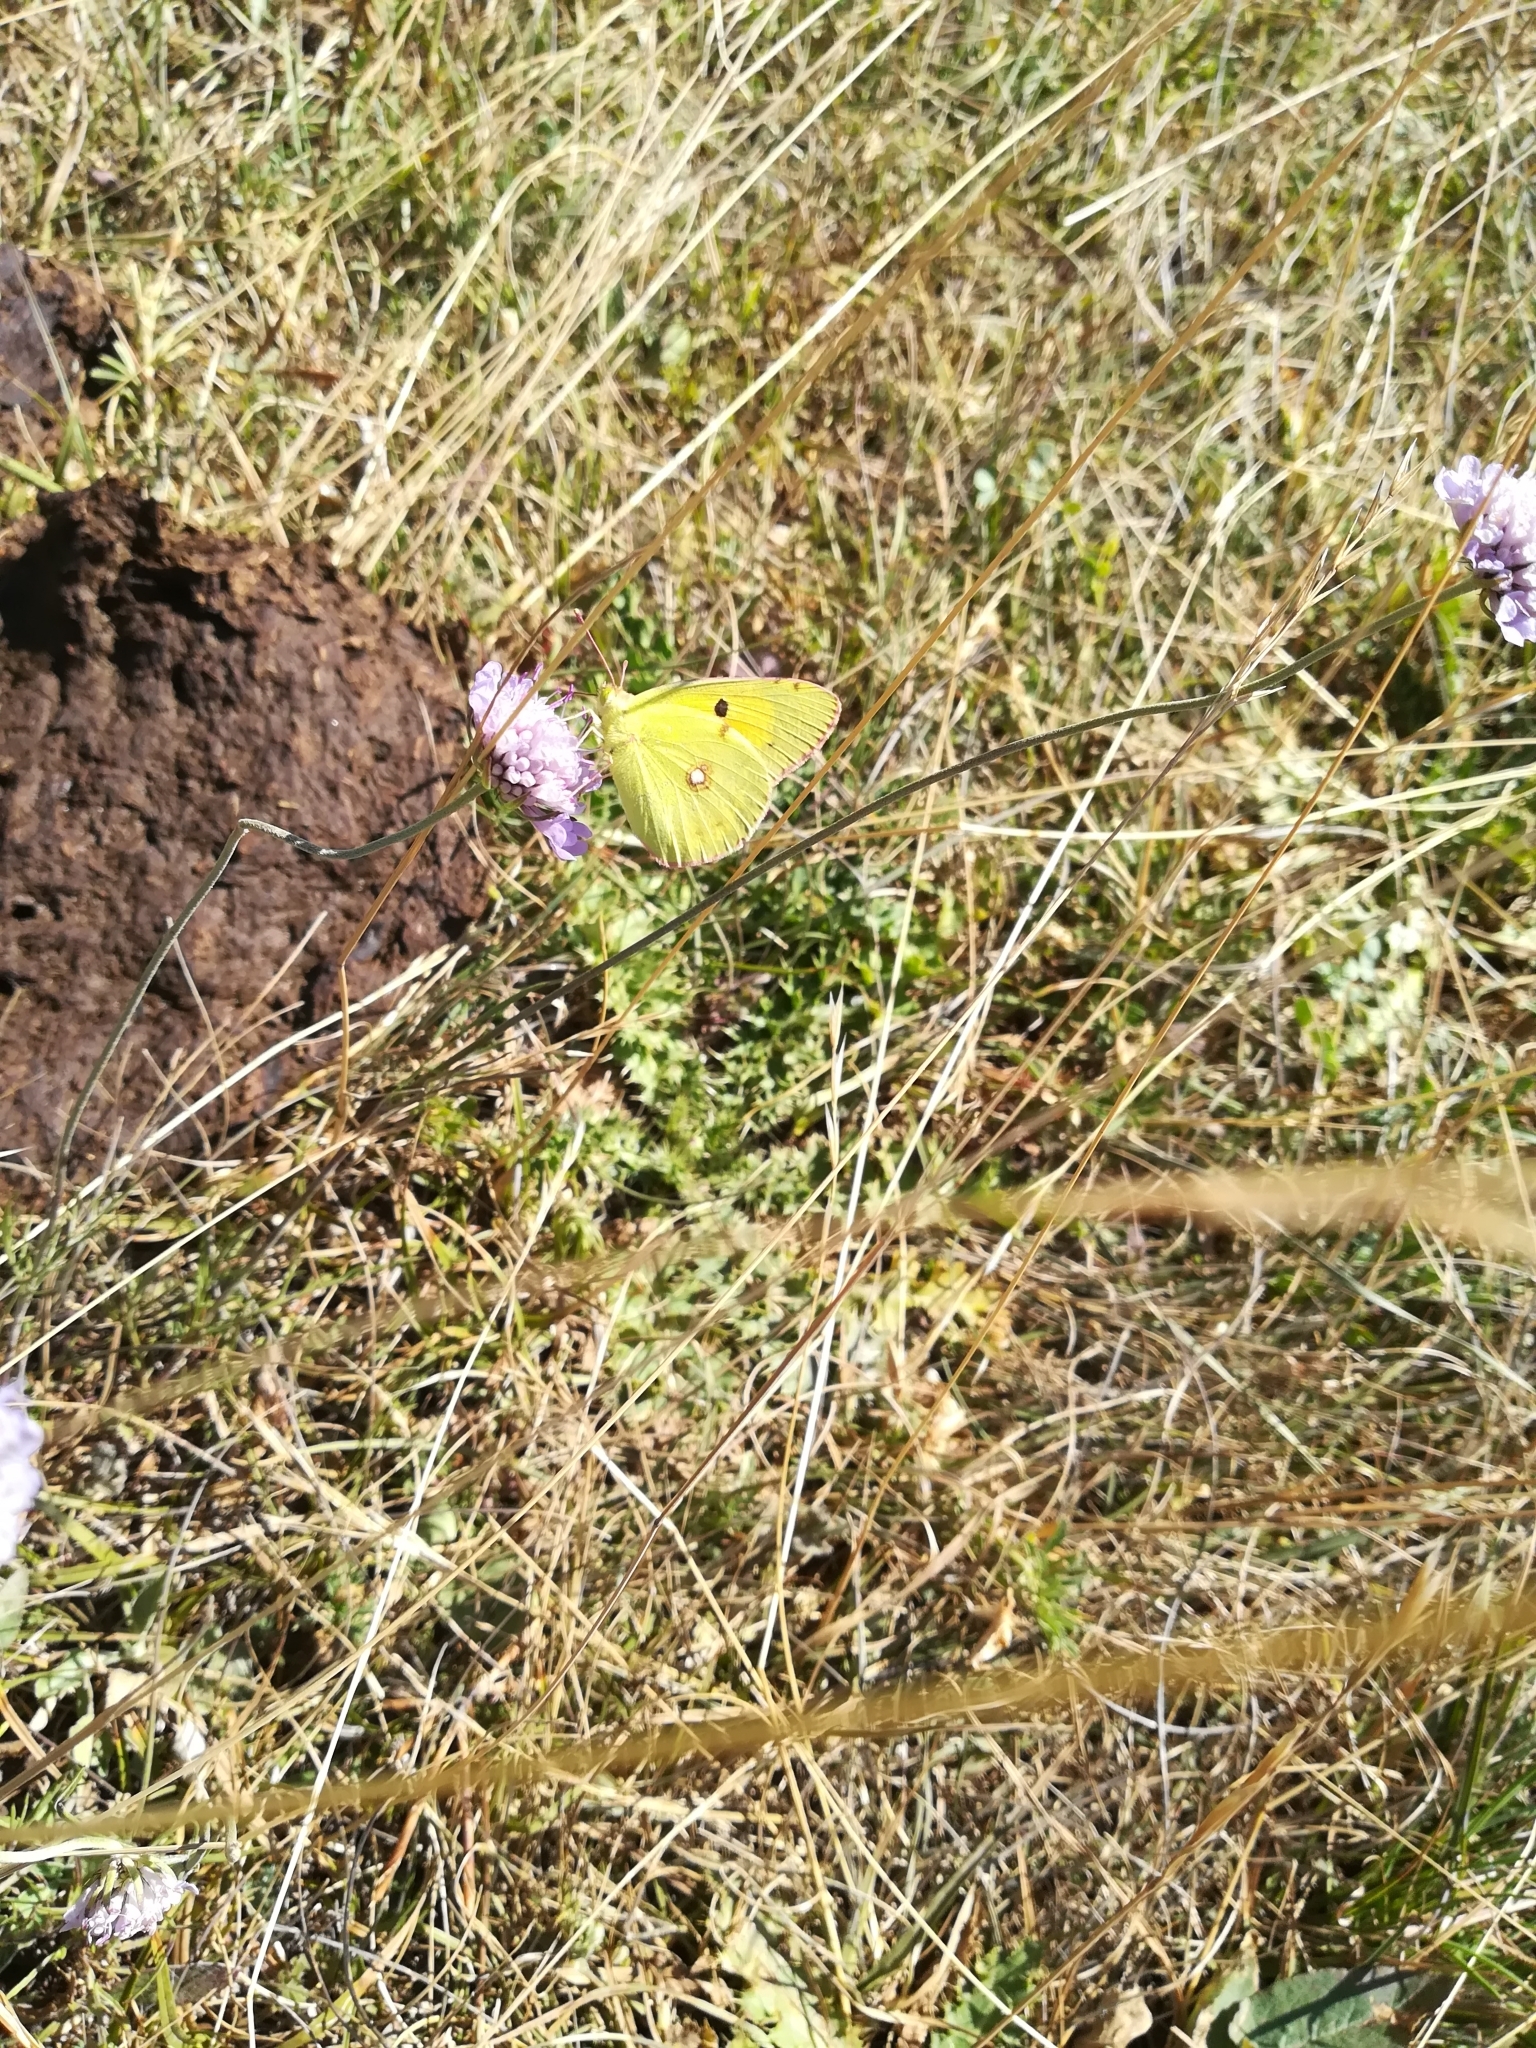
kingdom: Animalia
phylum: Arthropoda
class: Insecta
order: Lepidoptera
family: Pieridae
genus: Colias
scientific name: Colias croceus
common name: Clouded yellow
